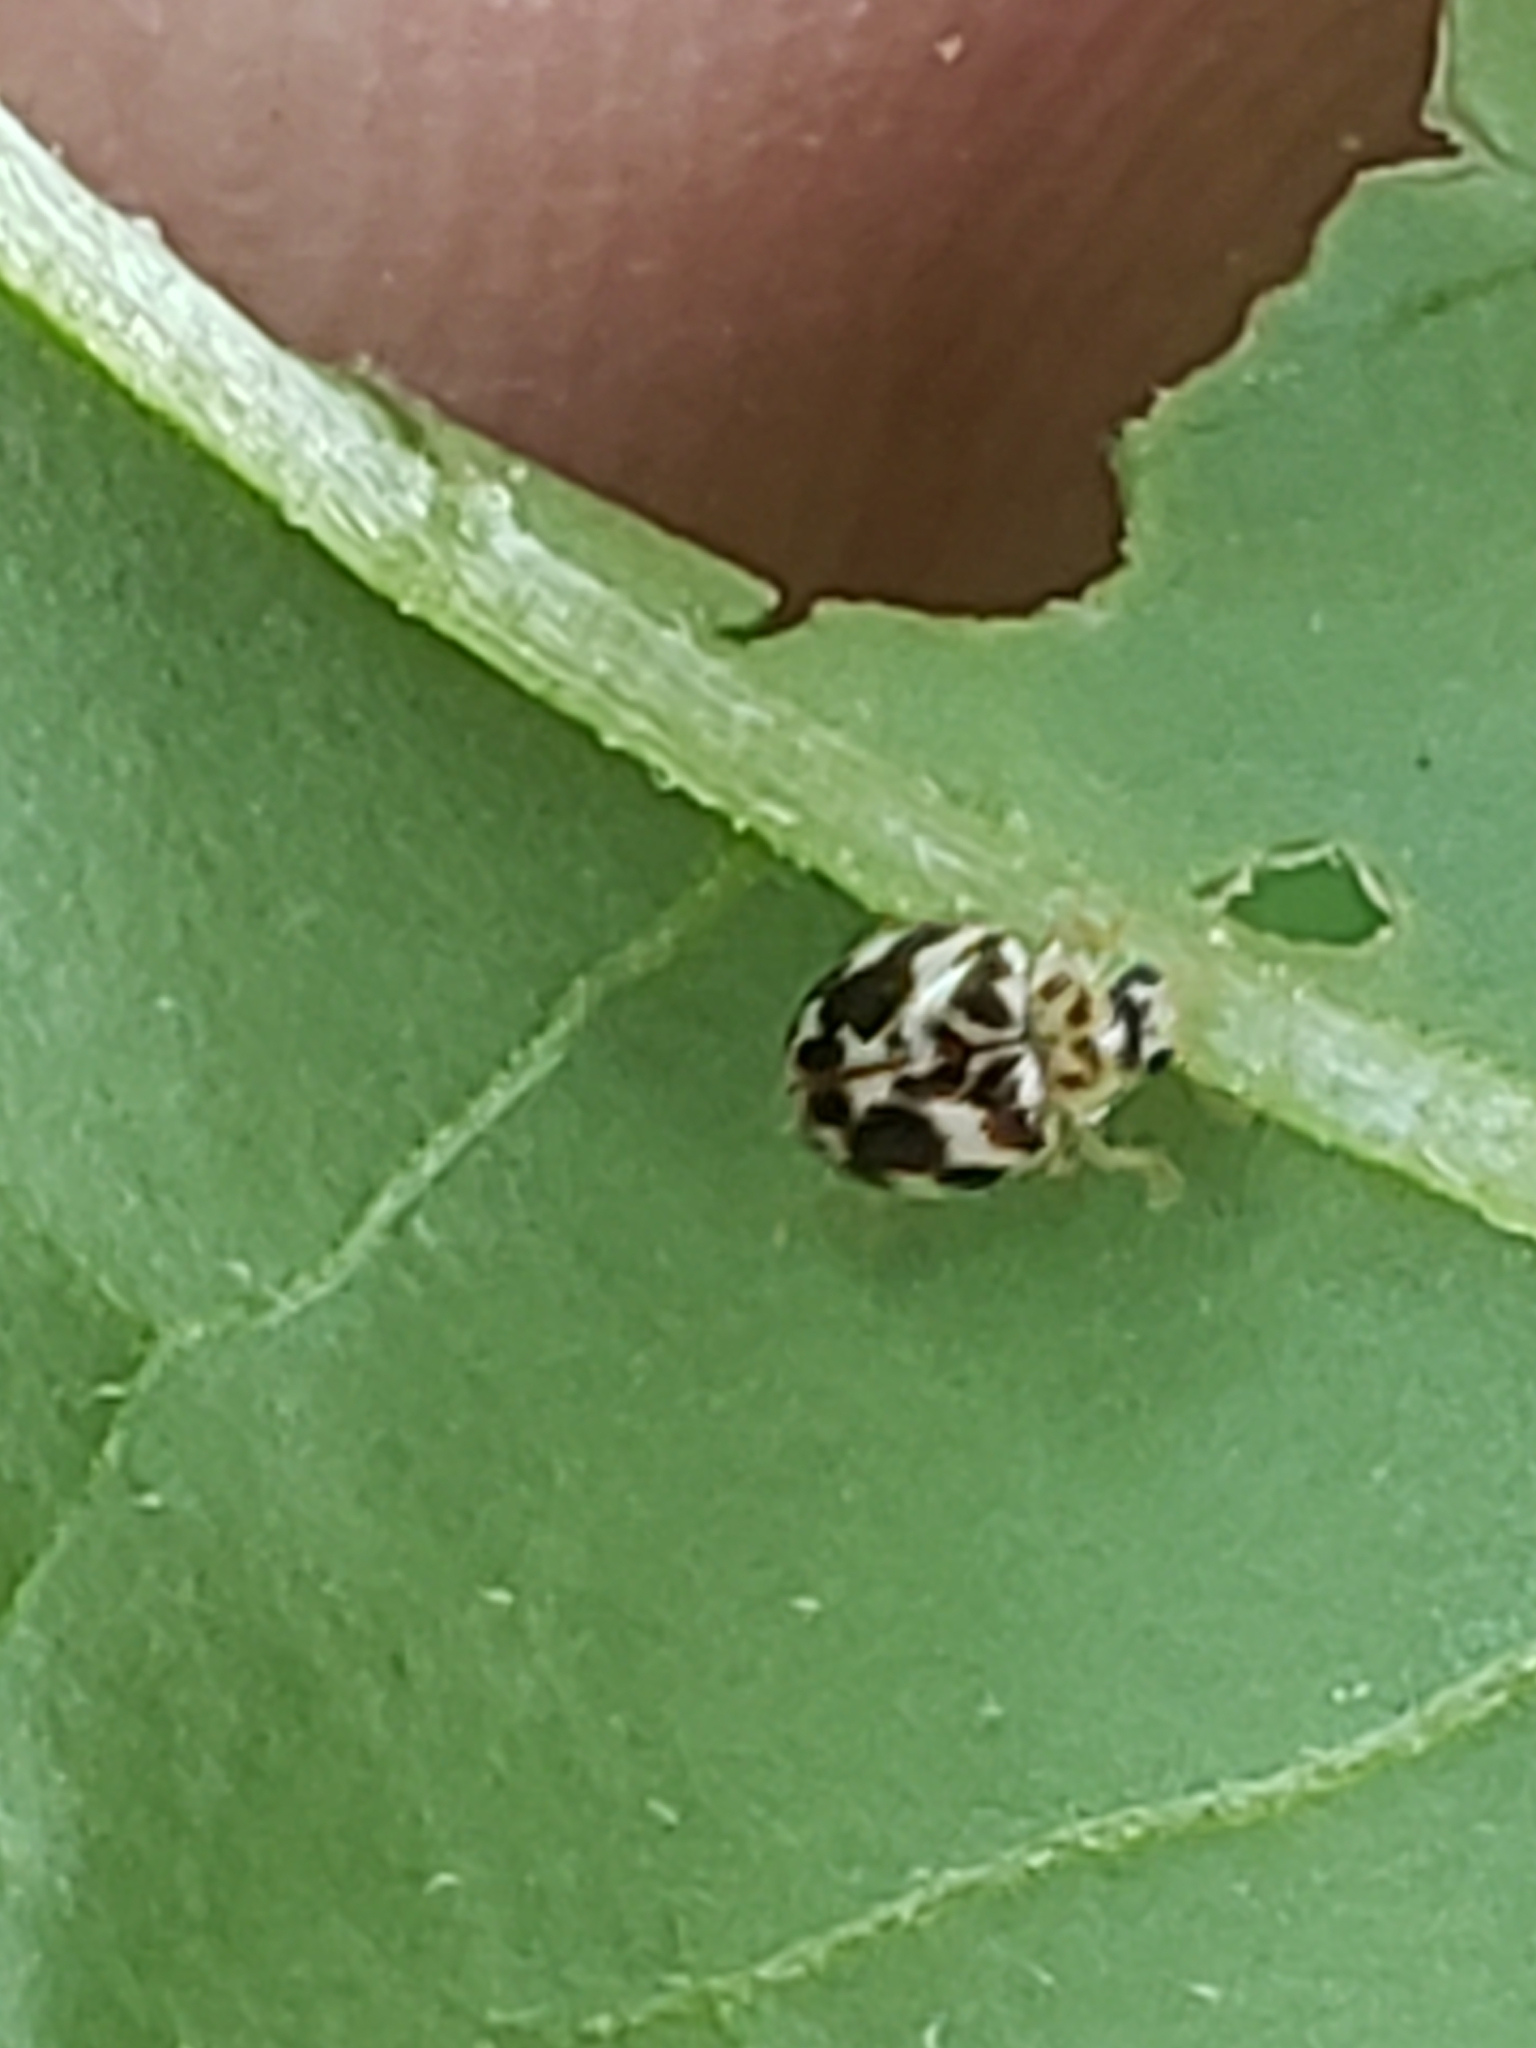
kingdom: Animalia
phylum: Arthropoda
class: Insecta
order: Coleoptera
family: Coccinellidae
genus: Psyllobora
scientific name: Psyllobora vigintimaculata
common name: Ladybird beetle
